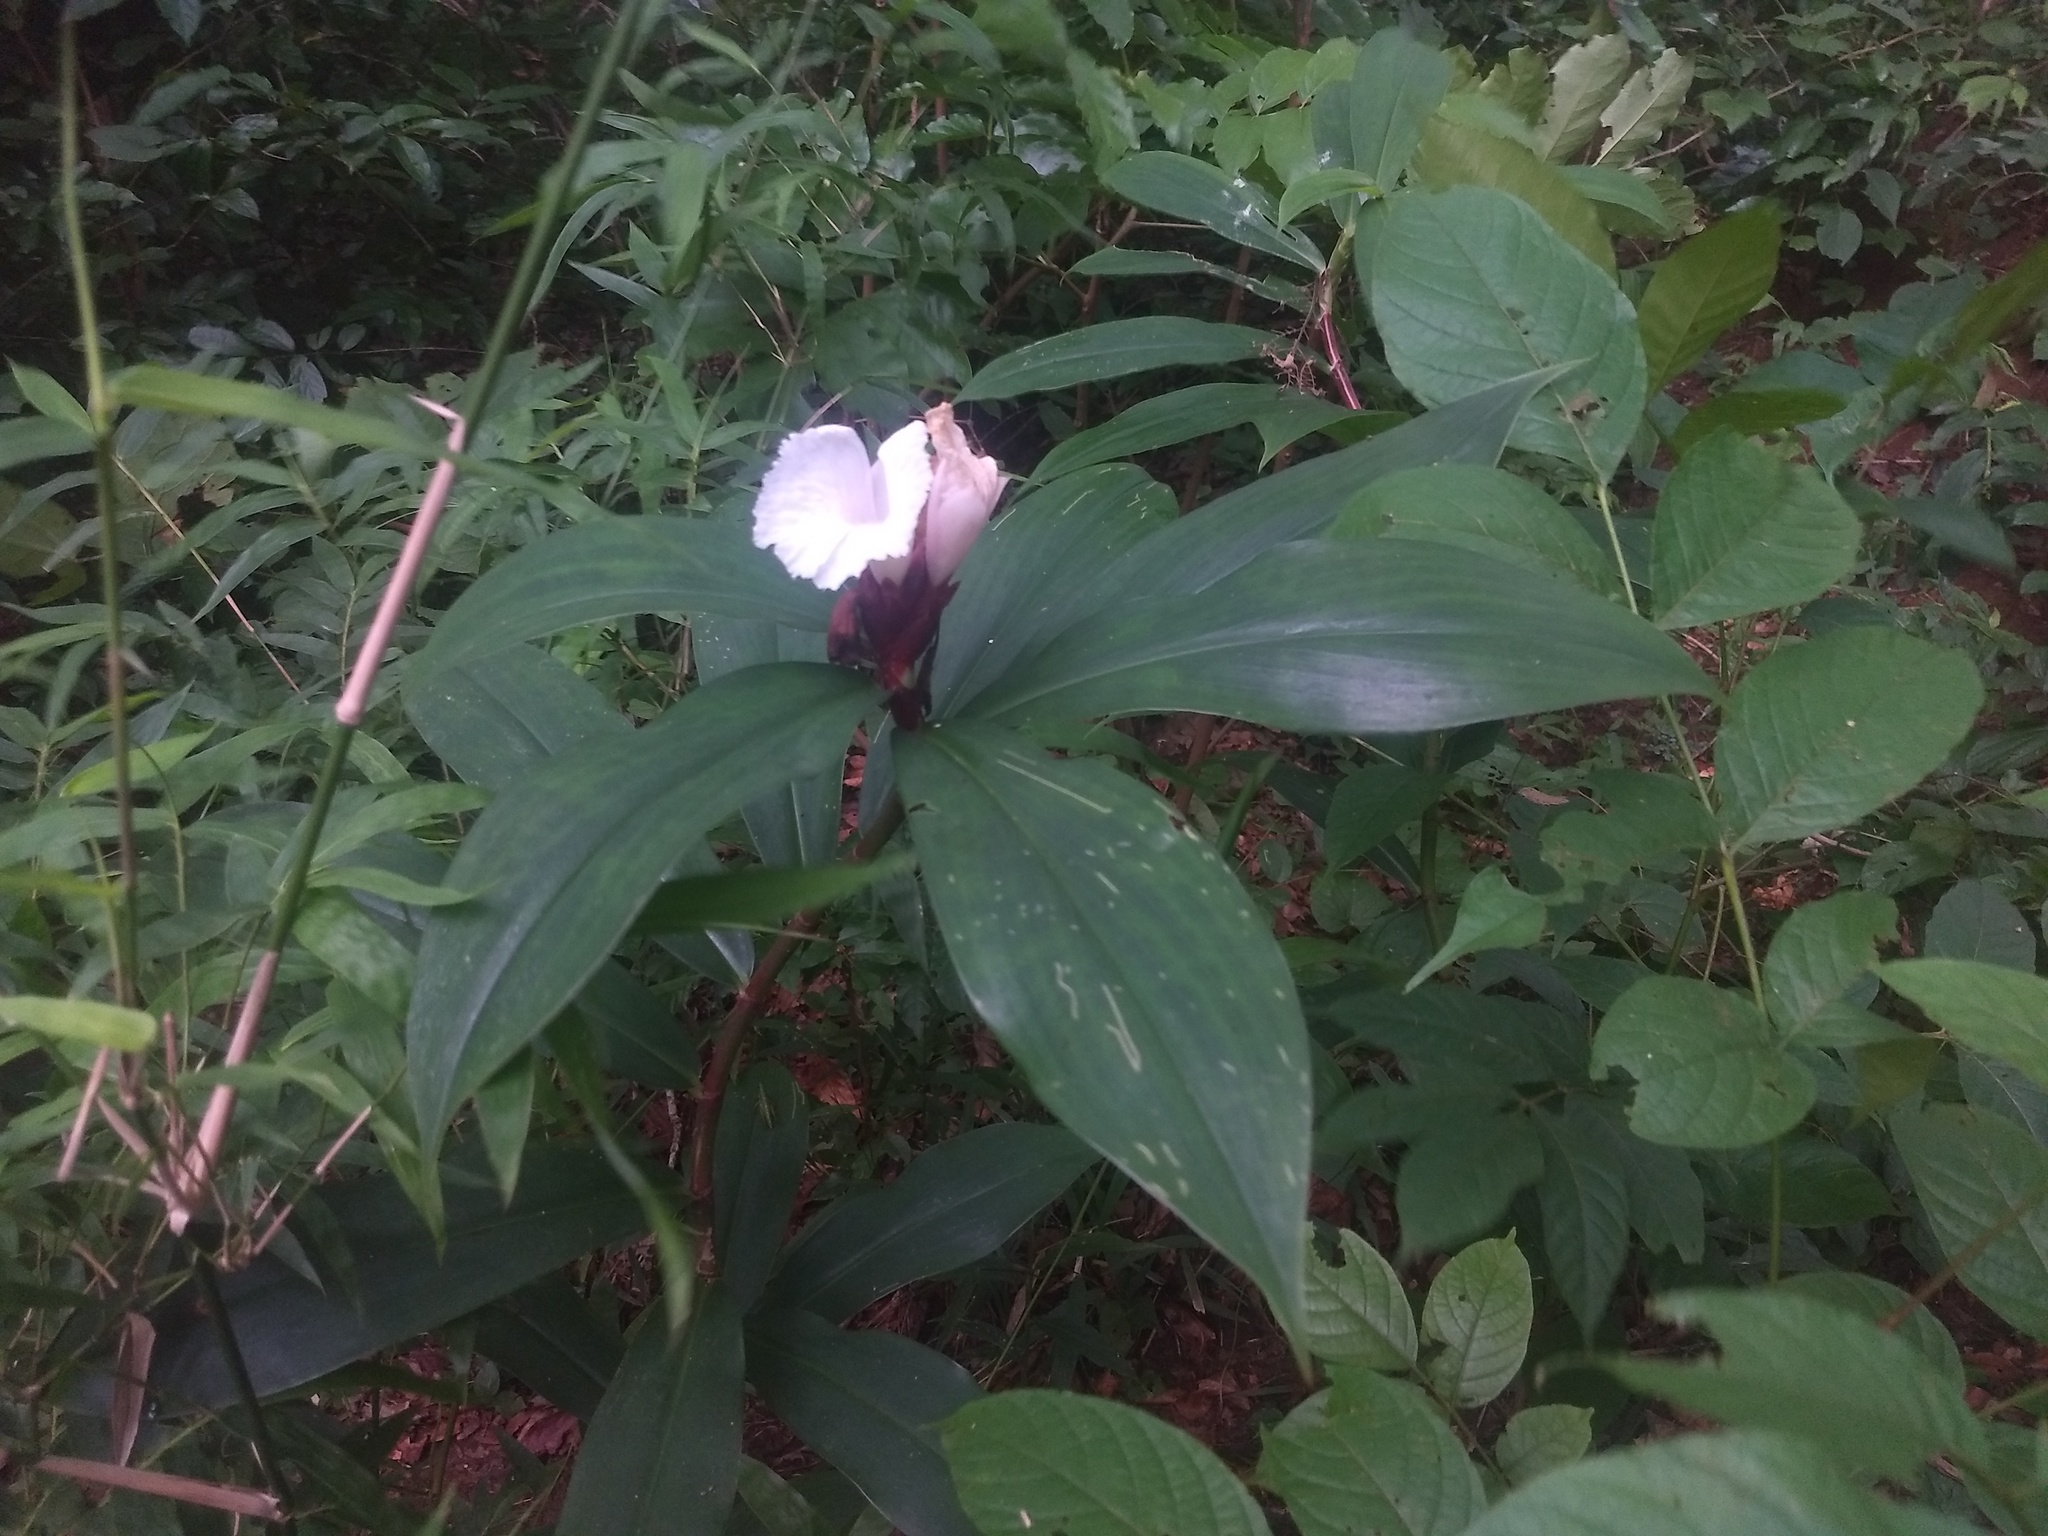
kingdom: Plantae
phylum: Tracheophyta
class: Liliopsida
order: Zingiberales
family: Costaceae
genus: Hellenia
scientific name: Hellenia speciosa
